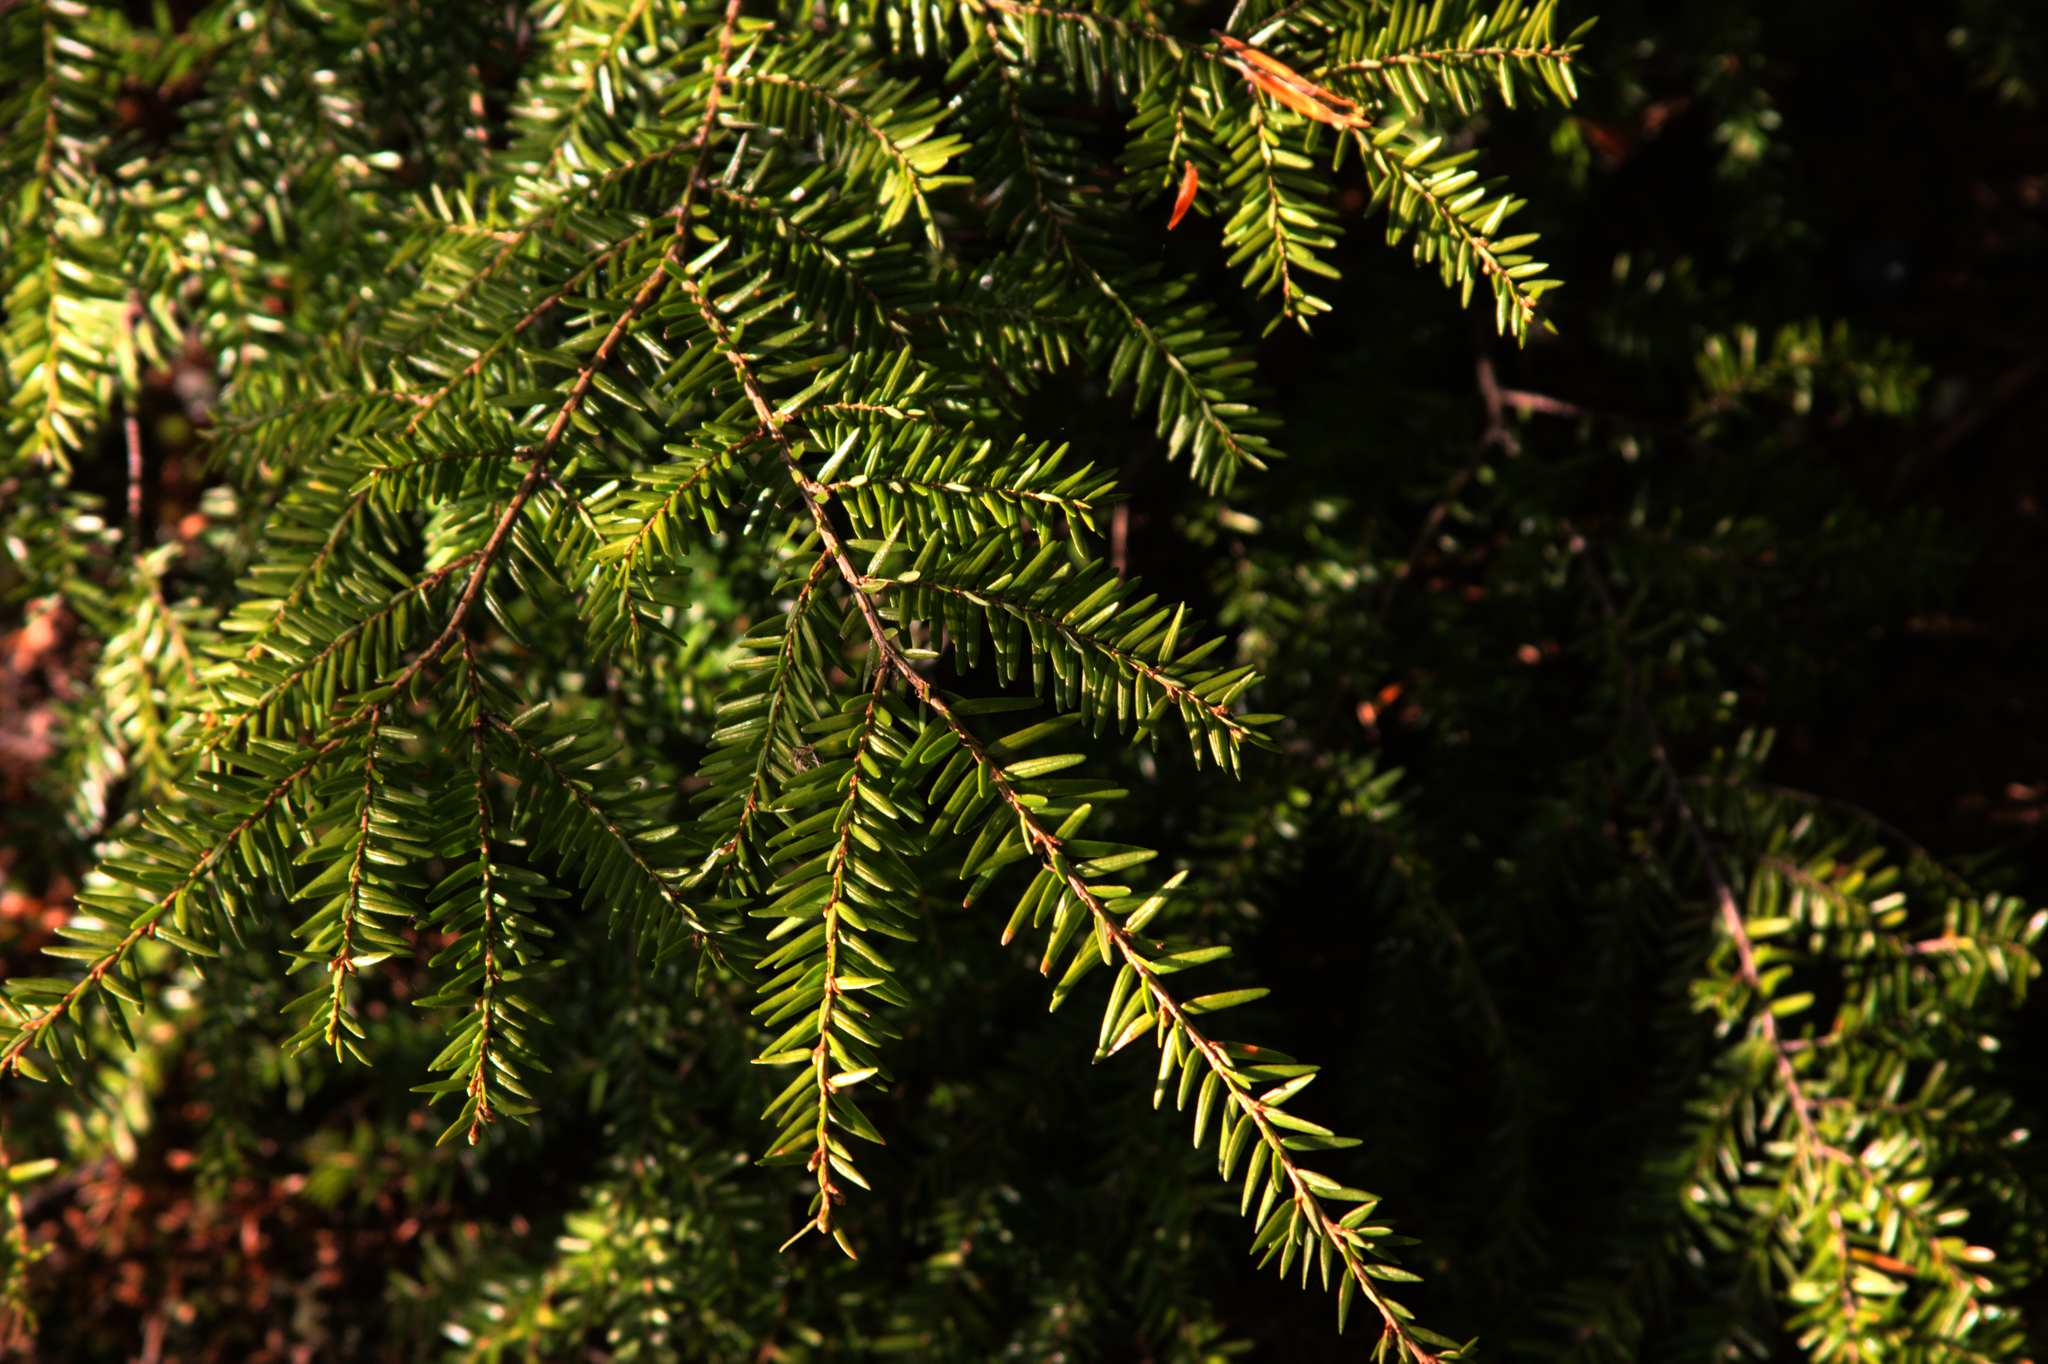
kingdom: Plantae
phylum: Tracheophyta
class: Pinopsida
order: Pinales
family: Pinaceae
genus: Tsuga
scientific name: Tsuga canadensis
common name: Eastern hemlock
